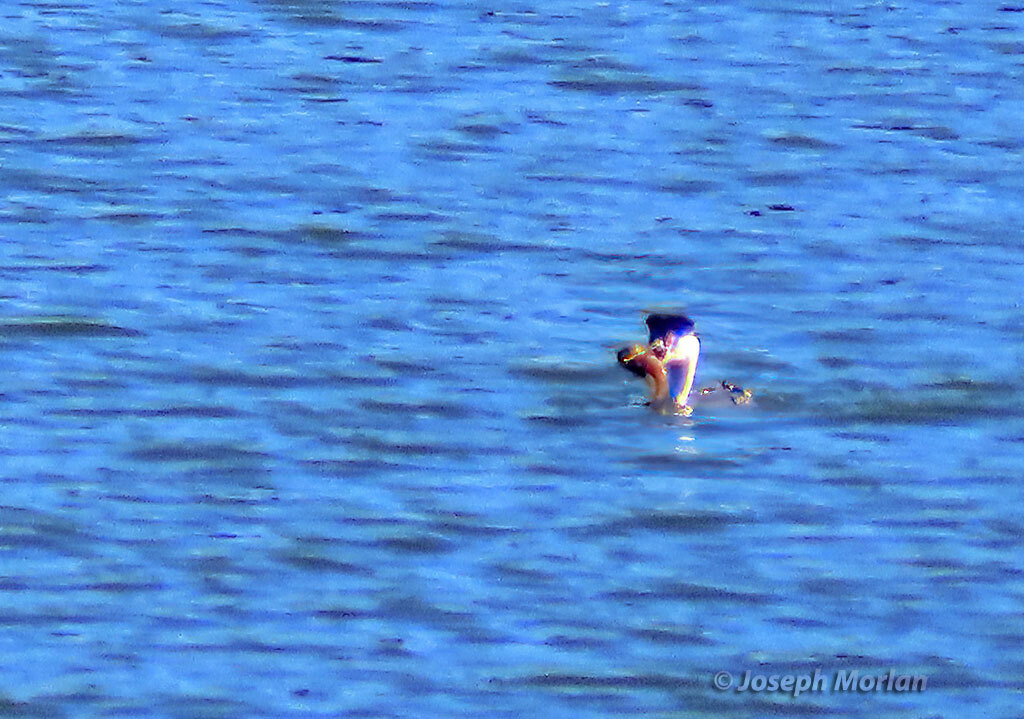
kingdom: Animalia
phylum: Chordata
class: Aves
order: Podicipediformes
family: Podicipedidae
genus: Aechmophorus
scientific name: Aechmophorus clarkii
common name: Clark's grebe
